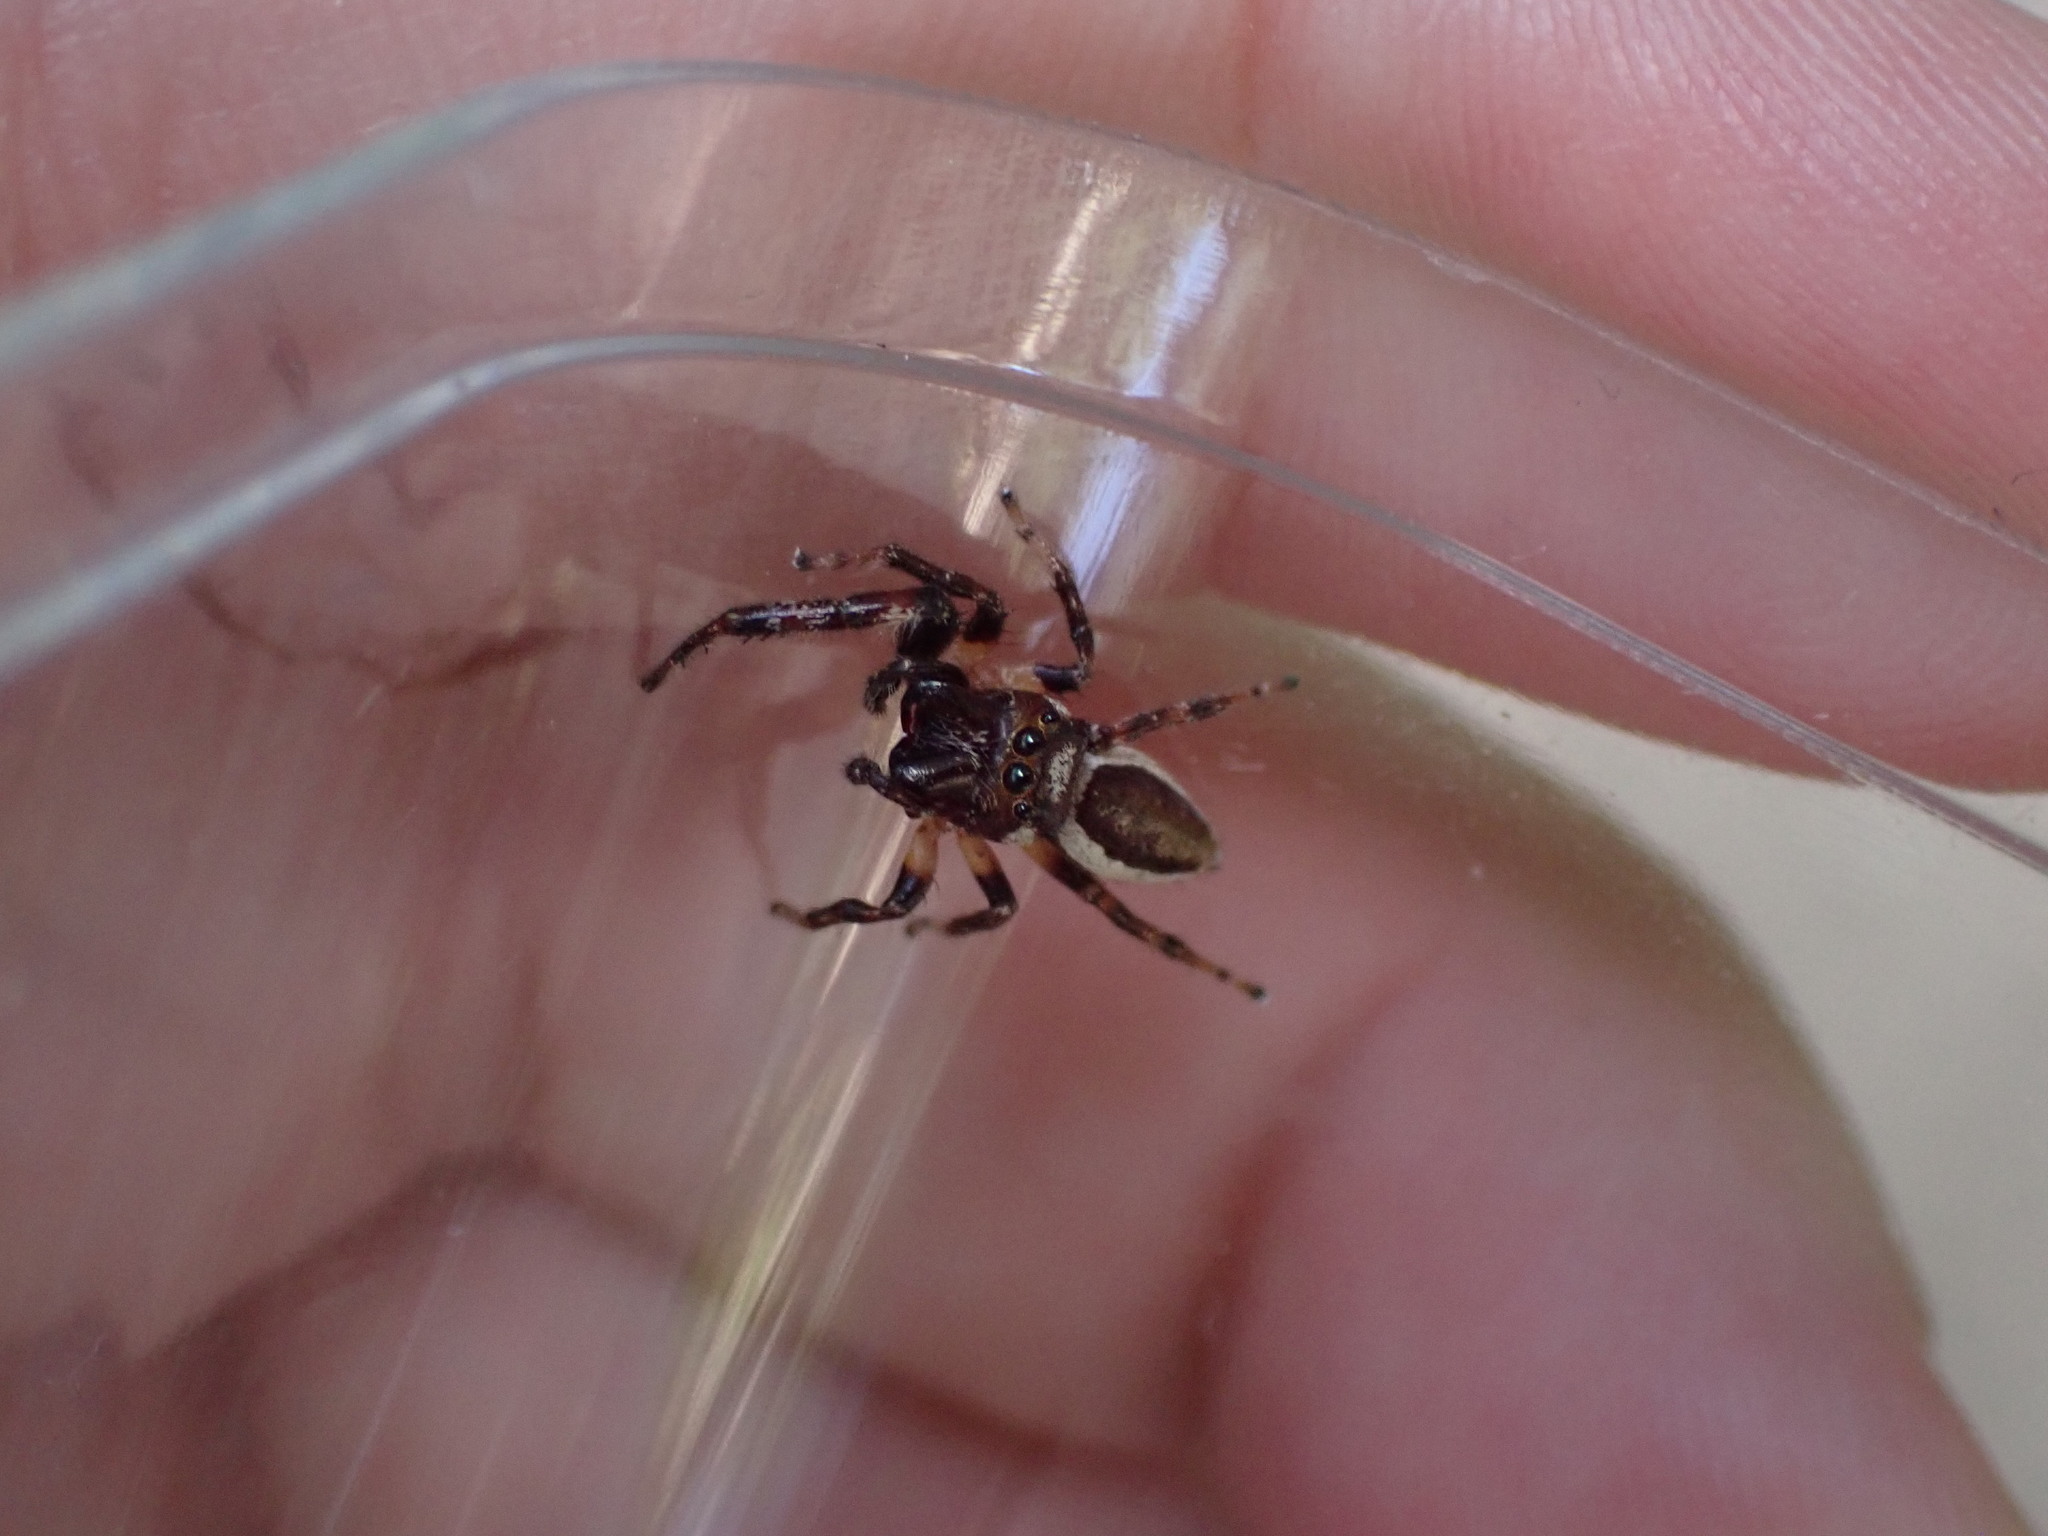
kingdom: Animalia
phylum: Arthropoda
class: Arachnida
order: Araneae
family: Salticidae
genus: Eris
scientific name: Eris militaris
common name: Bronze jumper
